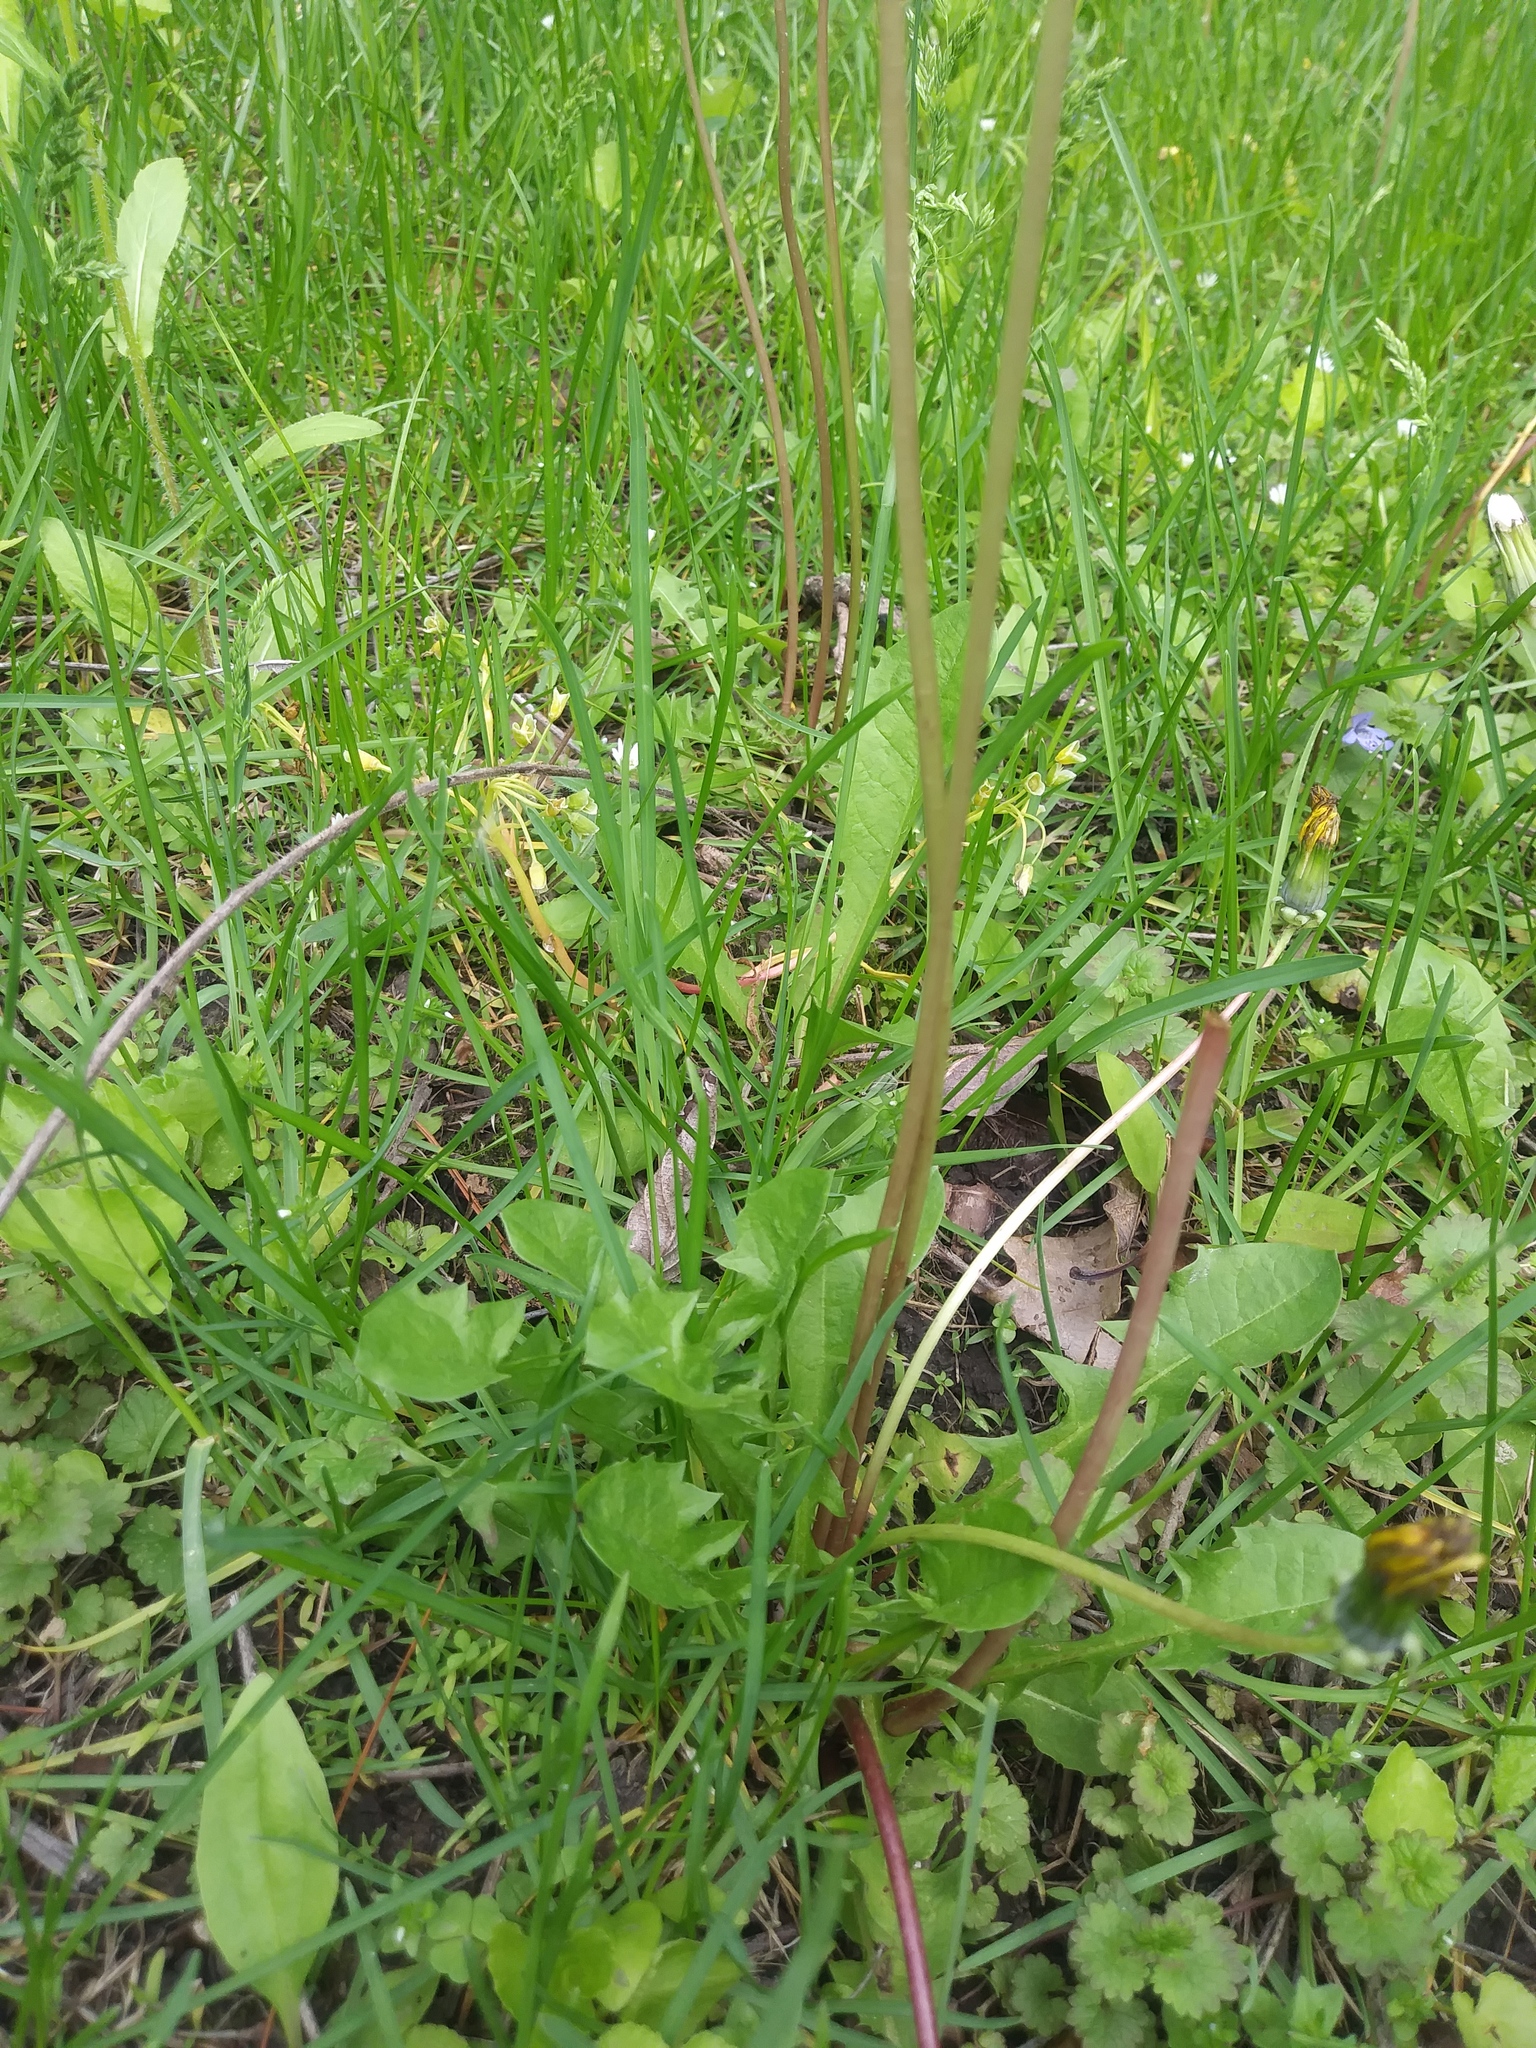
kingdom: Plantae
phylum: Tracheophyta
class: Magnoliopsida
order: Asterales
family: Asteraceae
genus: Taraxacum
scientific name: Taraxacum officinale
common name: Common dandelion
